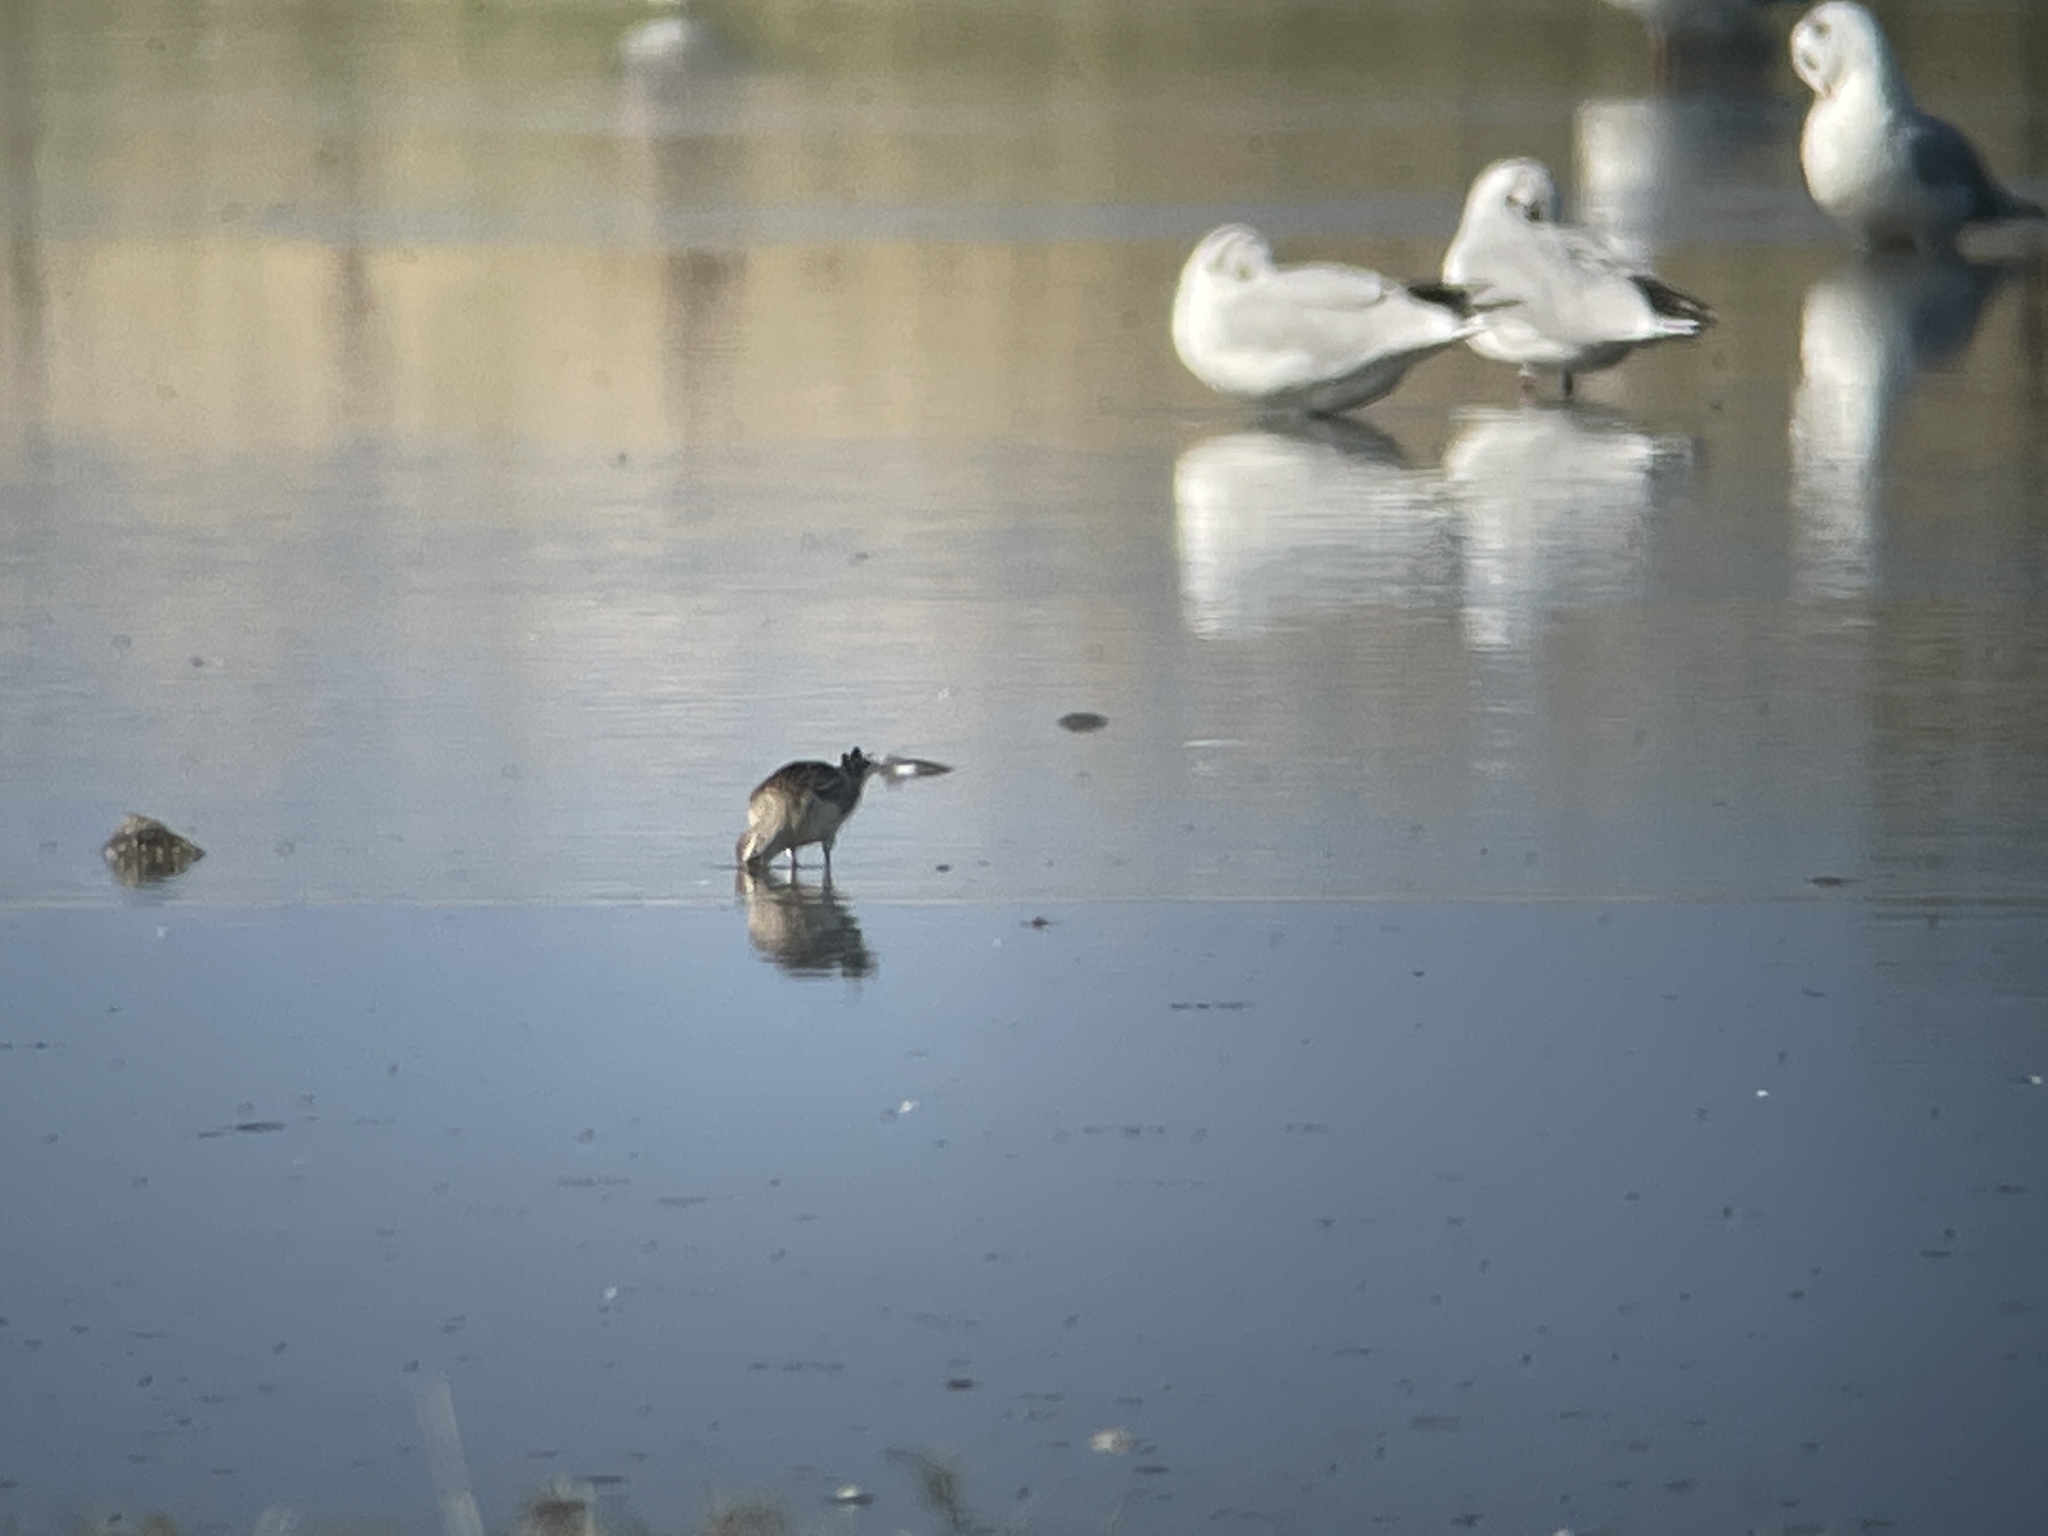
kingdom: Animalia
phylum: Chordata
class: Aves
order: Charadriiformes
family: Scolopacidae
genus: Calidris
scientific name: Calidris ferruginea
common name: Curlew sandpiper
